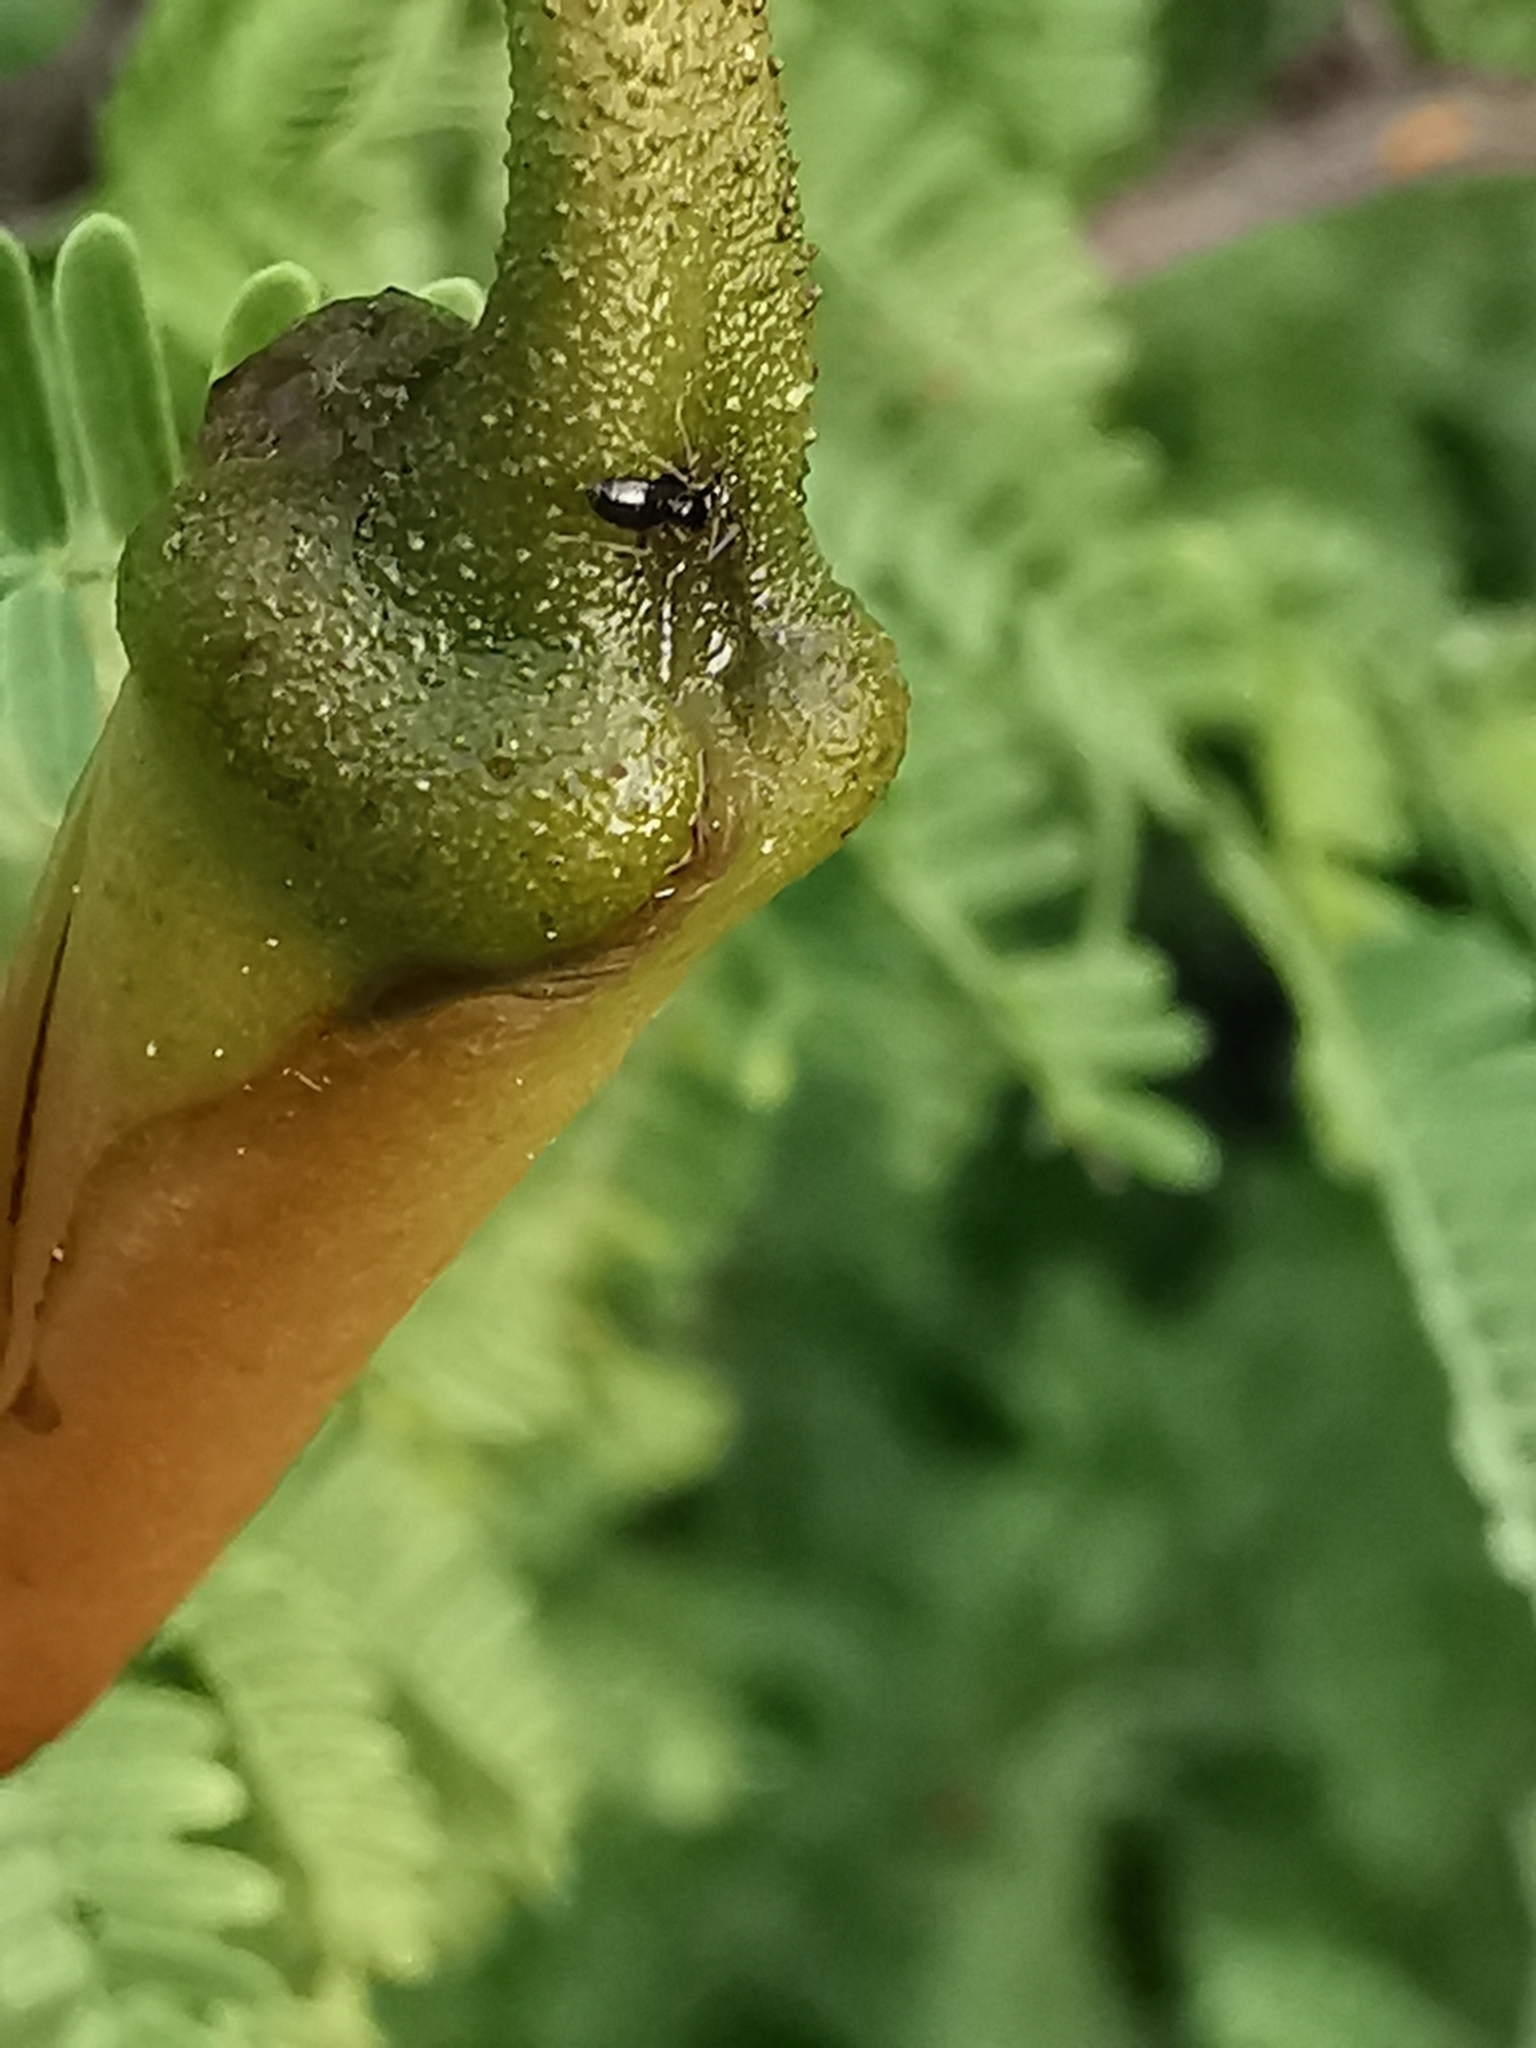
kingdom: Plantae
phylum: Tracheophyta
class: Magnoliopsida
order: Solanales
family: Convolvulaceae
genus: Distimake
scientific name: Distimake dissectus
